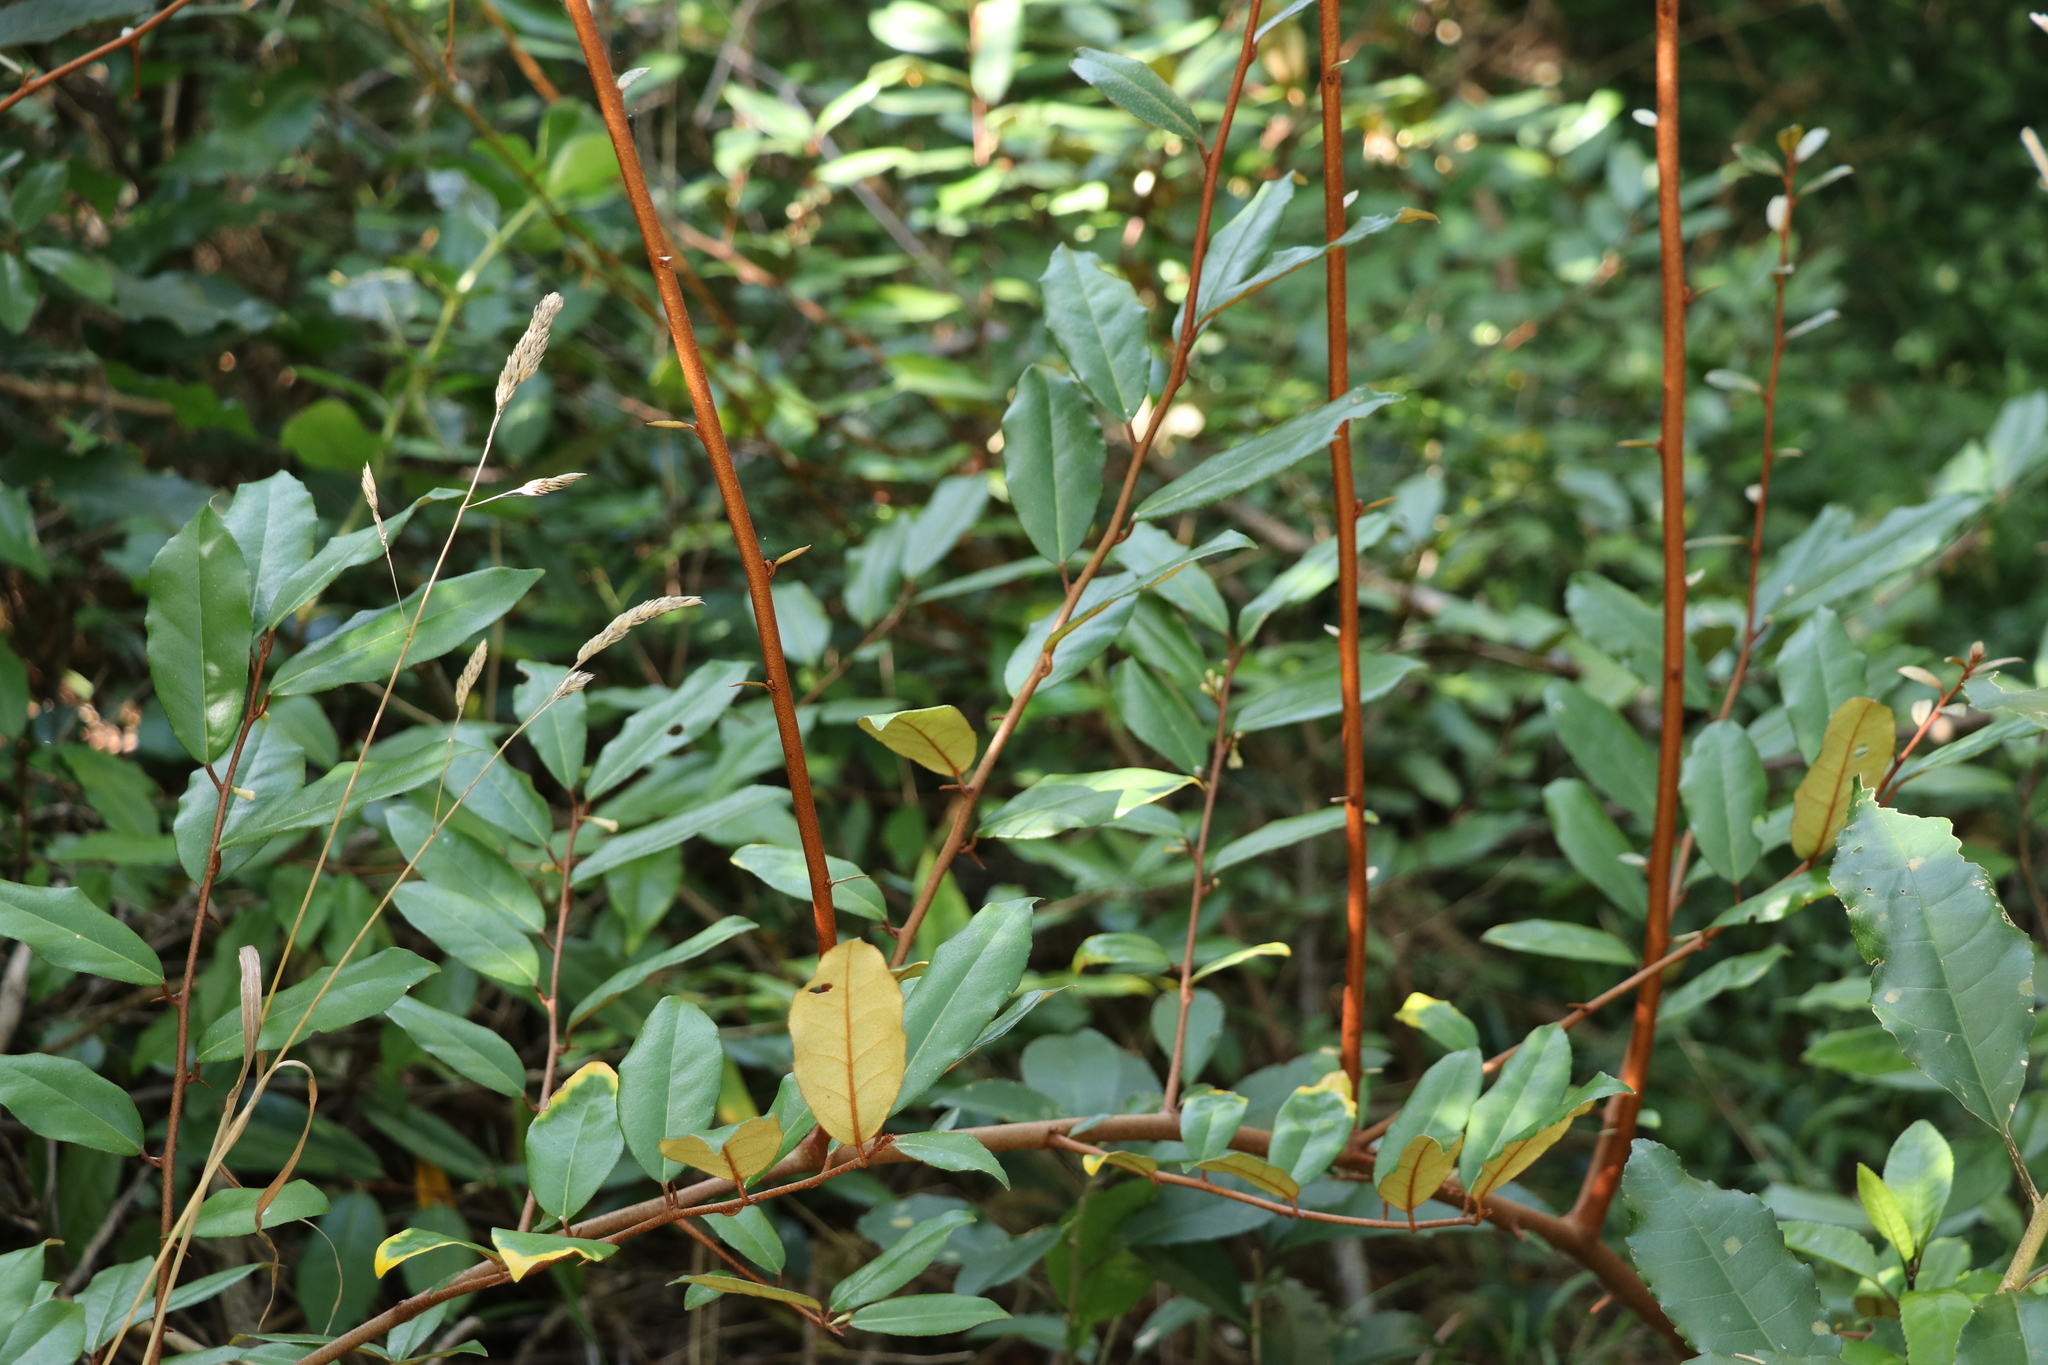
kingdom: Plantae
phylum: Tracheophyta
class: Magnoliopsida
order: Rosales
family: Elaeagnaceae
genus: Elaeagnus
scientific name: Elaeagnus reflexa
